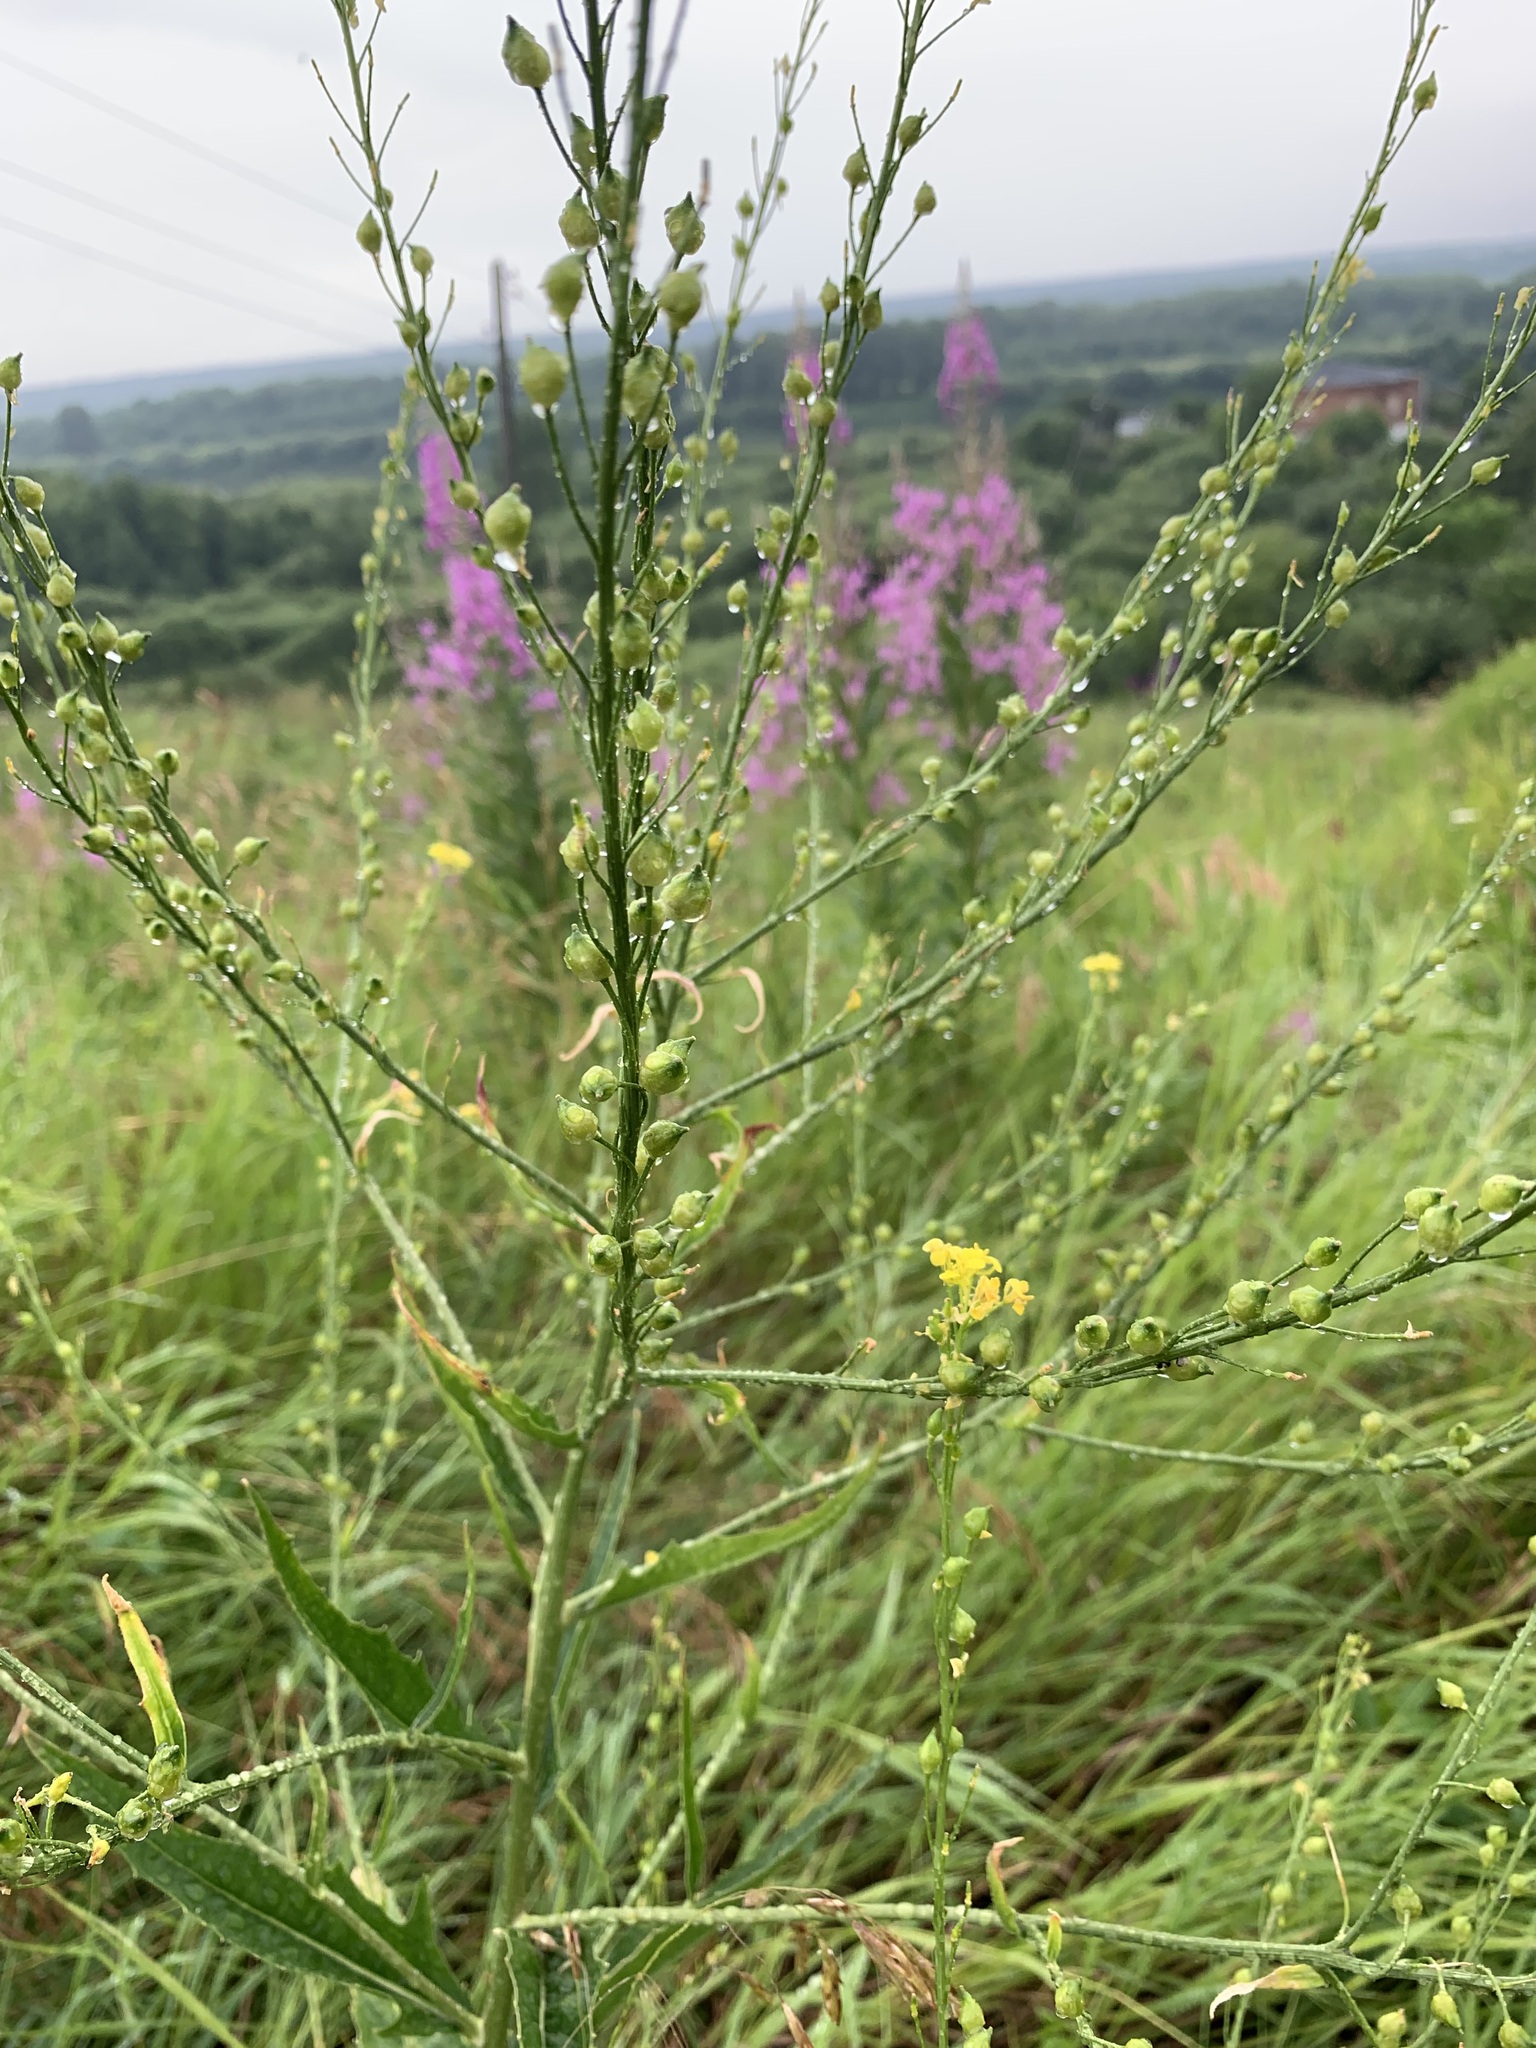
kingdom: Plantae
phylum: Tracheophyta
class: Magnoliopsida
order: Brassicales
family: Brassicaceae
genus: Bunias
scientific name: Bunias orientalis
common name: Warty-cabbage
